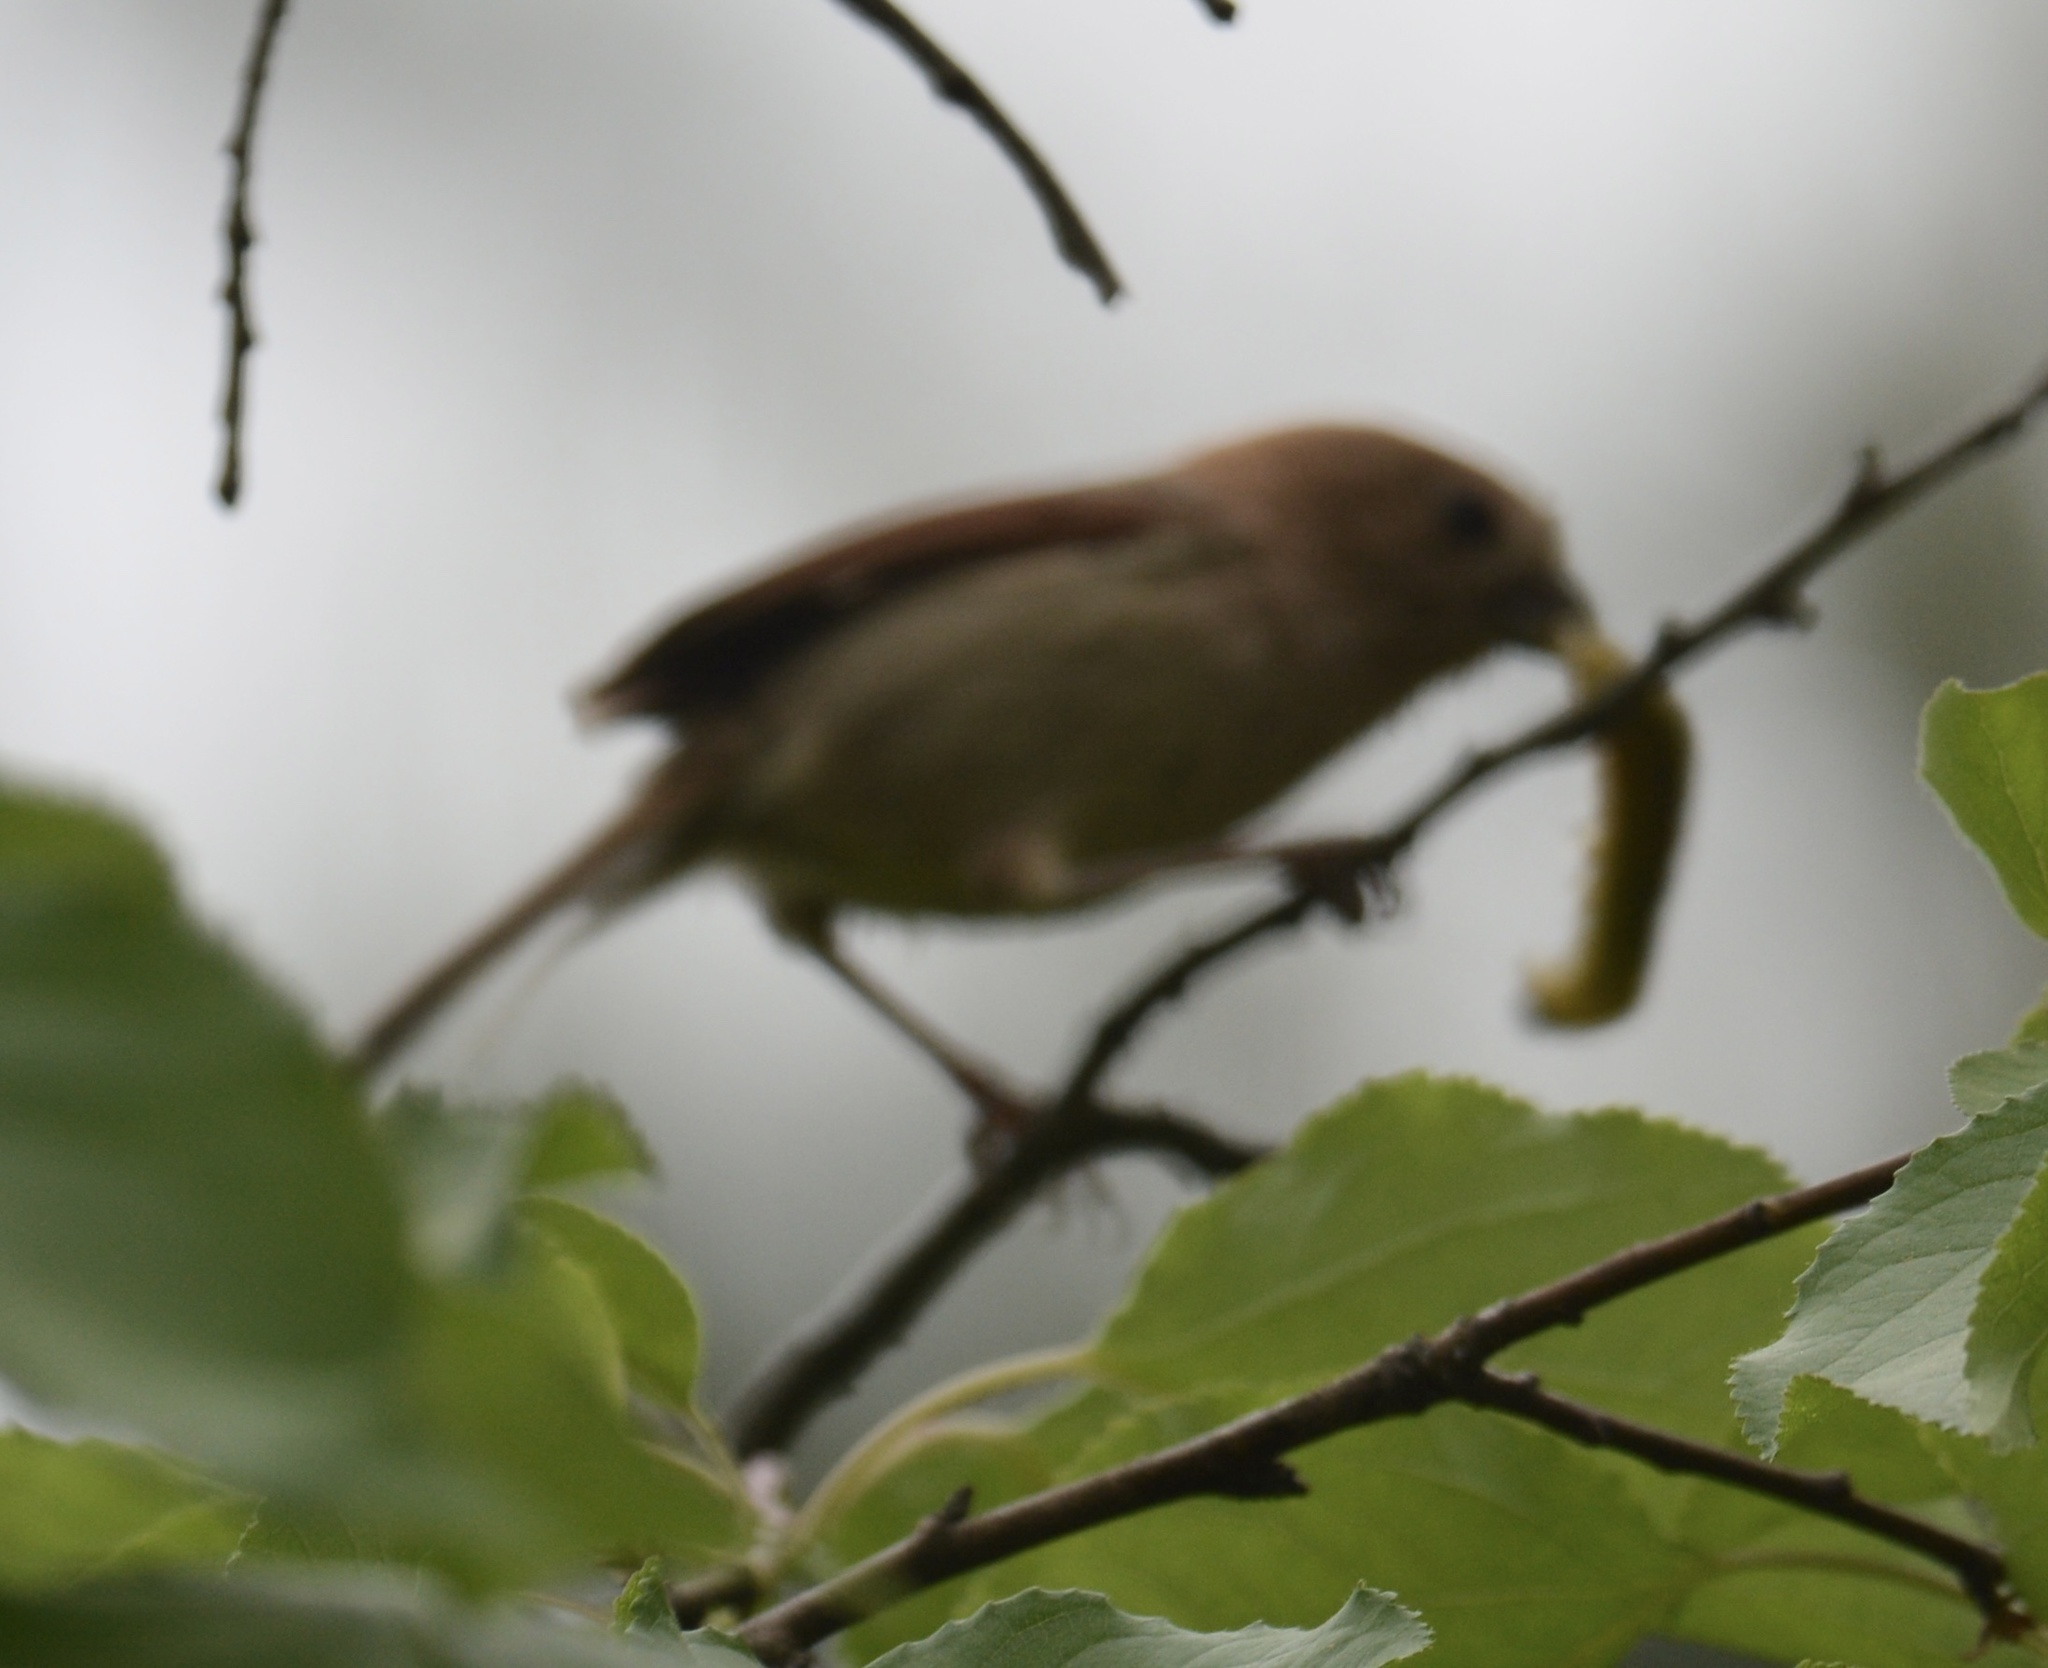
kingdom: Animalia
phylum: Chordata
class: Aves
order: Passeriformes
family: Sylviidae
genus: Sinosuthora
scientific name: Sinosuthora webbiana
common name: Vinous-throated parrotbill
